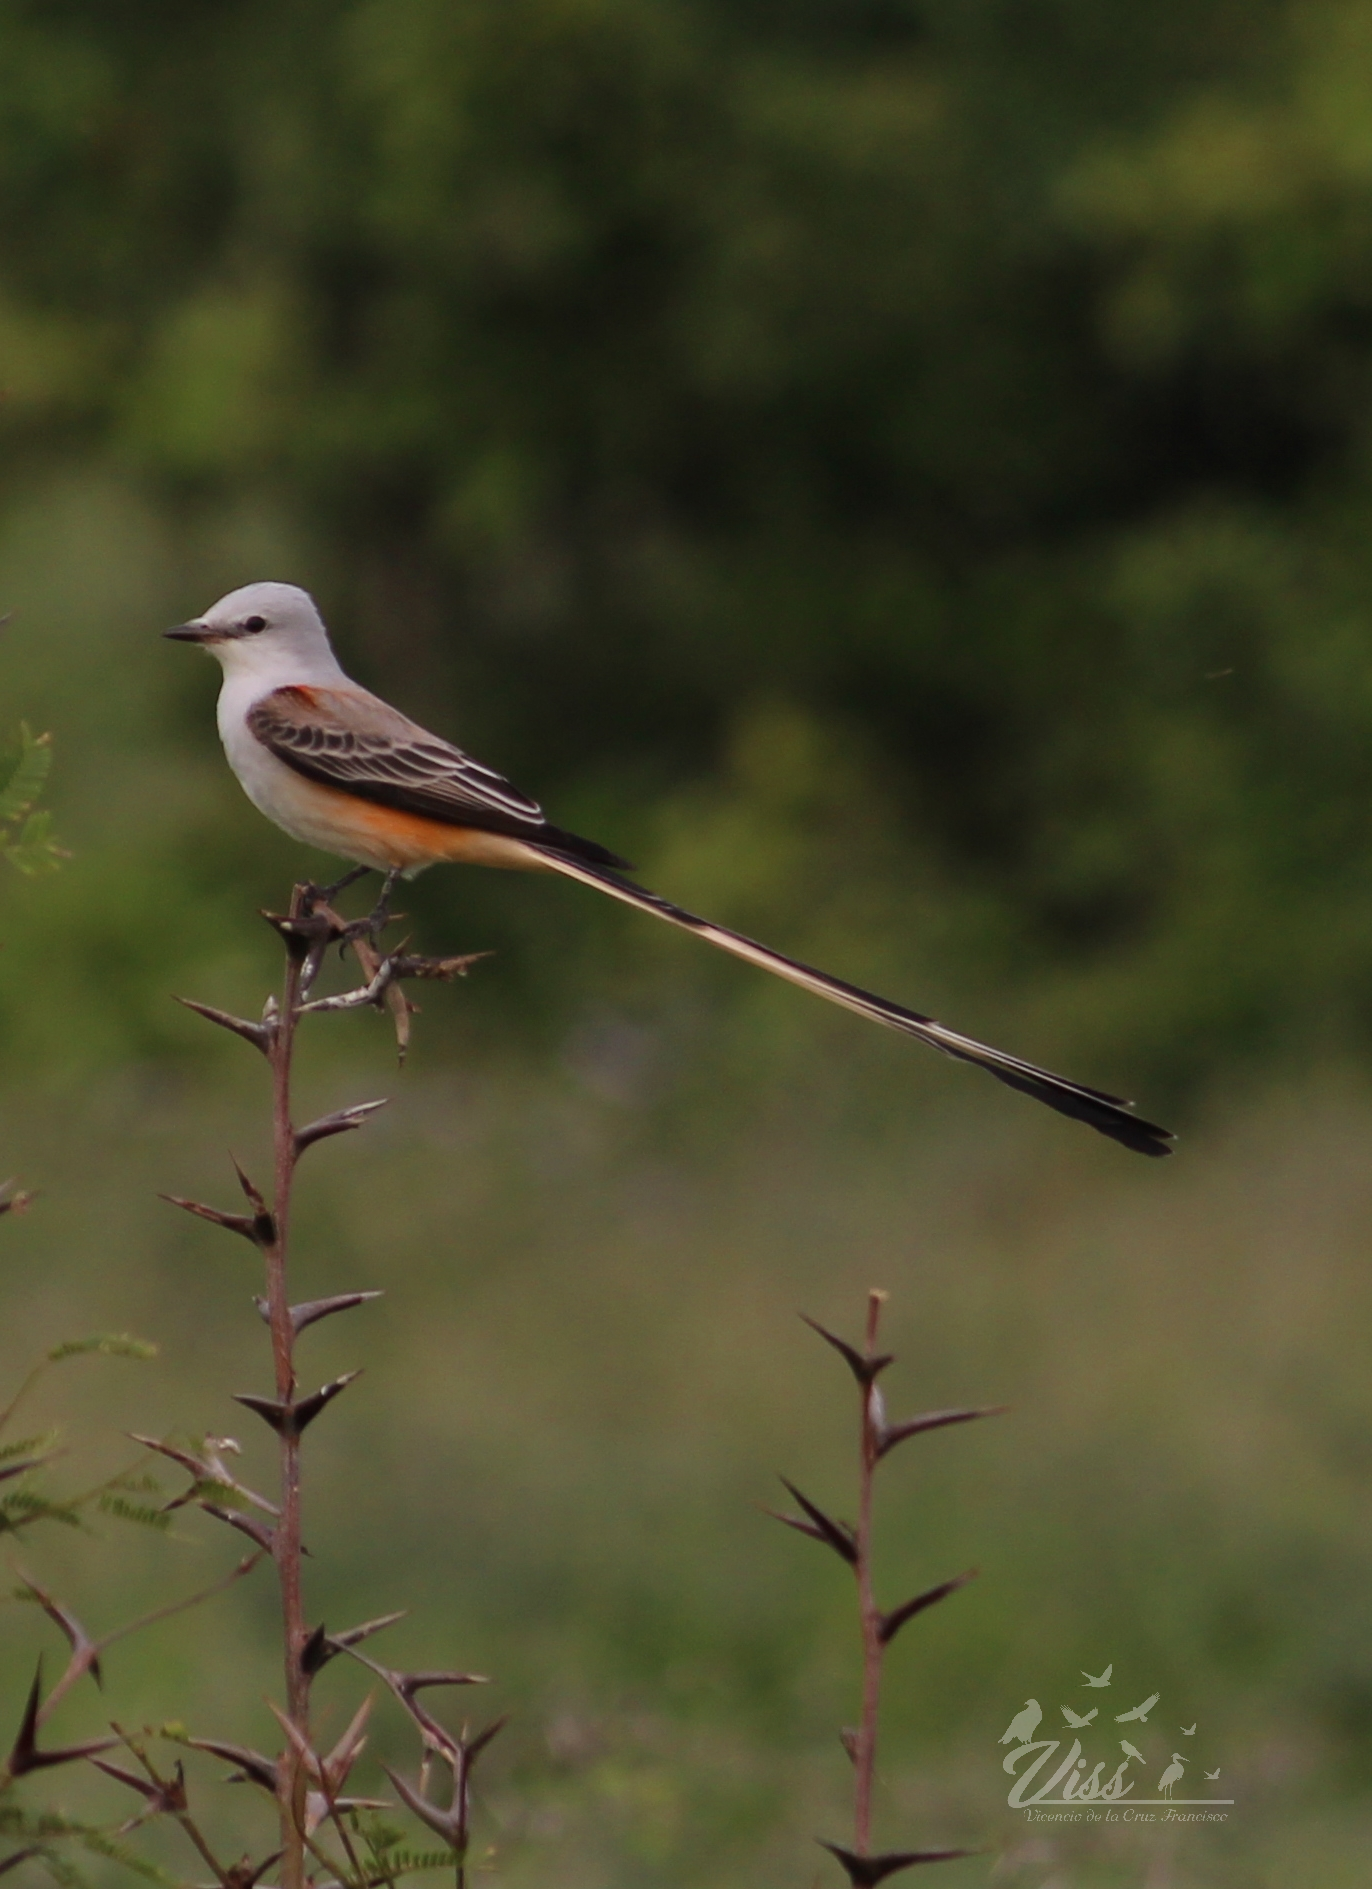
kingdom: Animalia
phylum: Chordata
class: Aves
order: Passeriformes
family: Tyrannidae
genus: Tyrannus
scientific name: Tyrannus forficatus
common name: Scissor-tailed flycatcher
